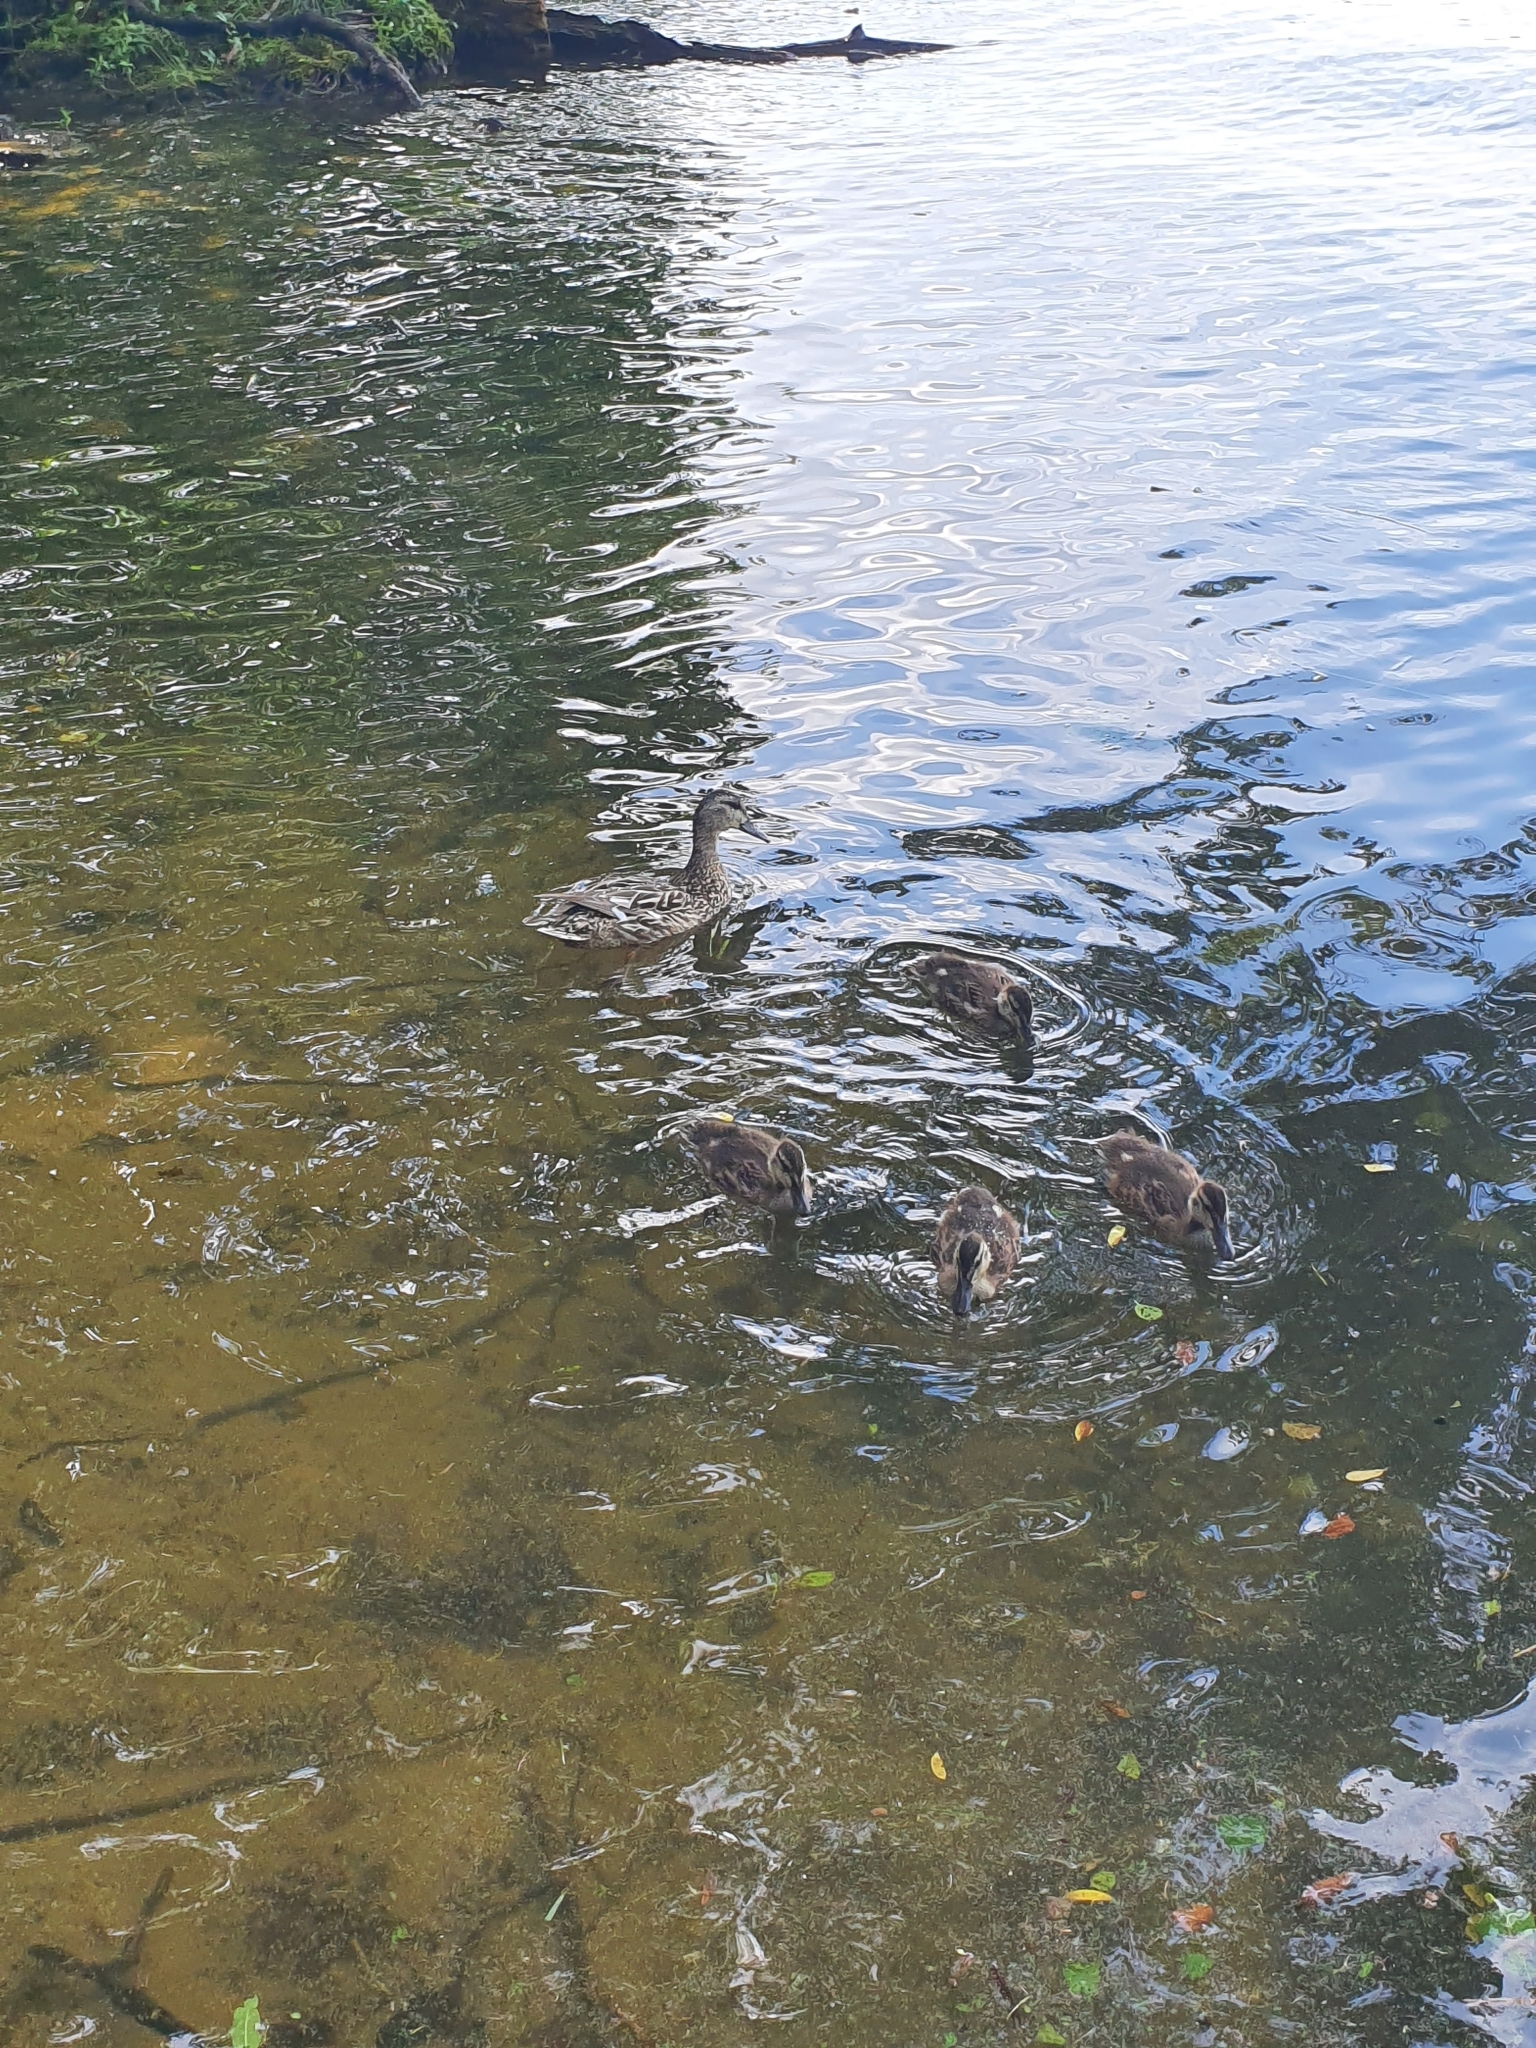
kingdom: Animalia
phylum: Chordata
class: Aves
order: Anseriformes
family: Anatidae
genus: Anas
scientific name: Anas platyrhynchos
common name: Mallard
